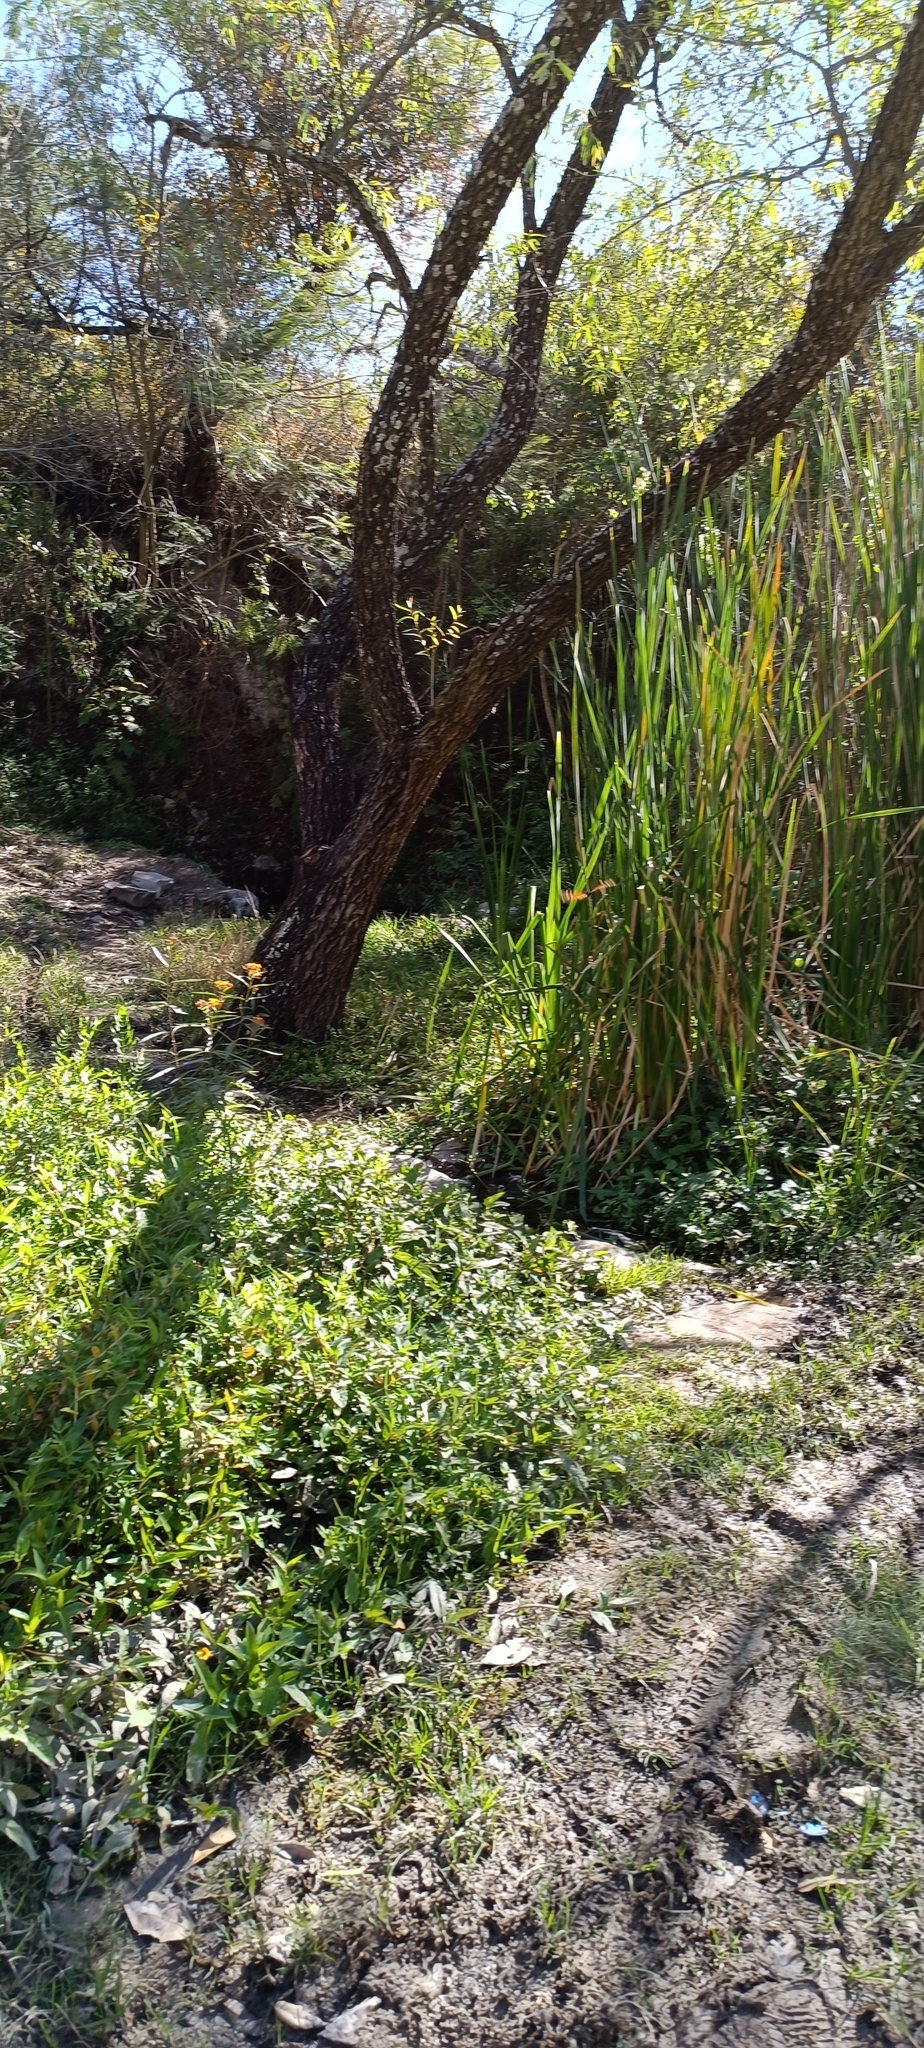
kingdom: Animalia
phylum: Arthropoda
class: Insecta
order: Lepidoptera
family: Nymphalidae
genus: Danaus
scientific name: Danaus plexippus
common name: Monarch
